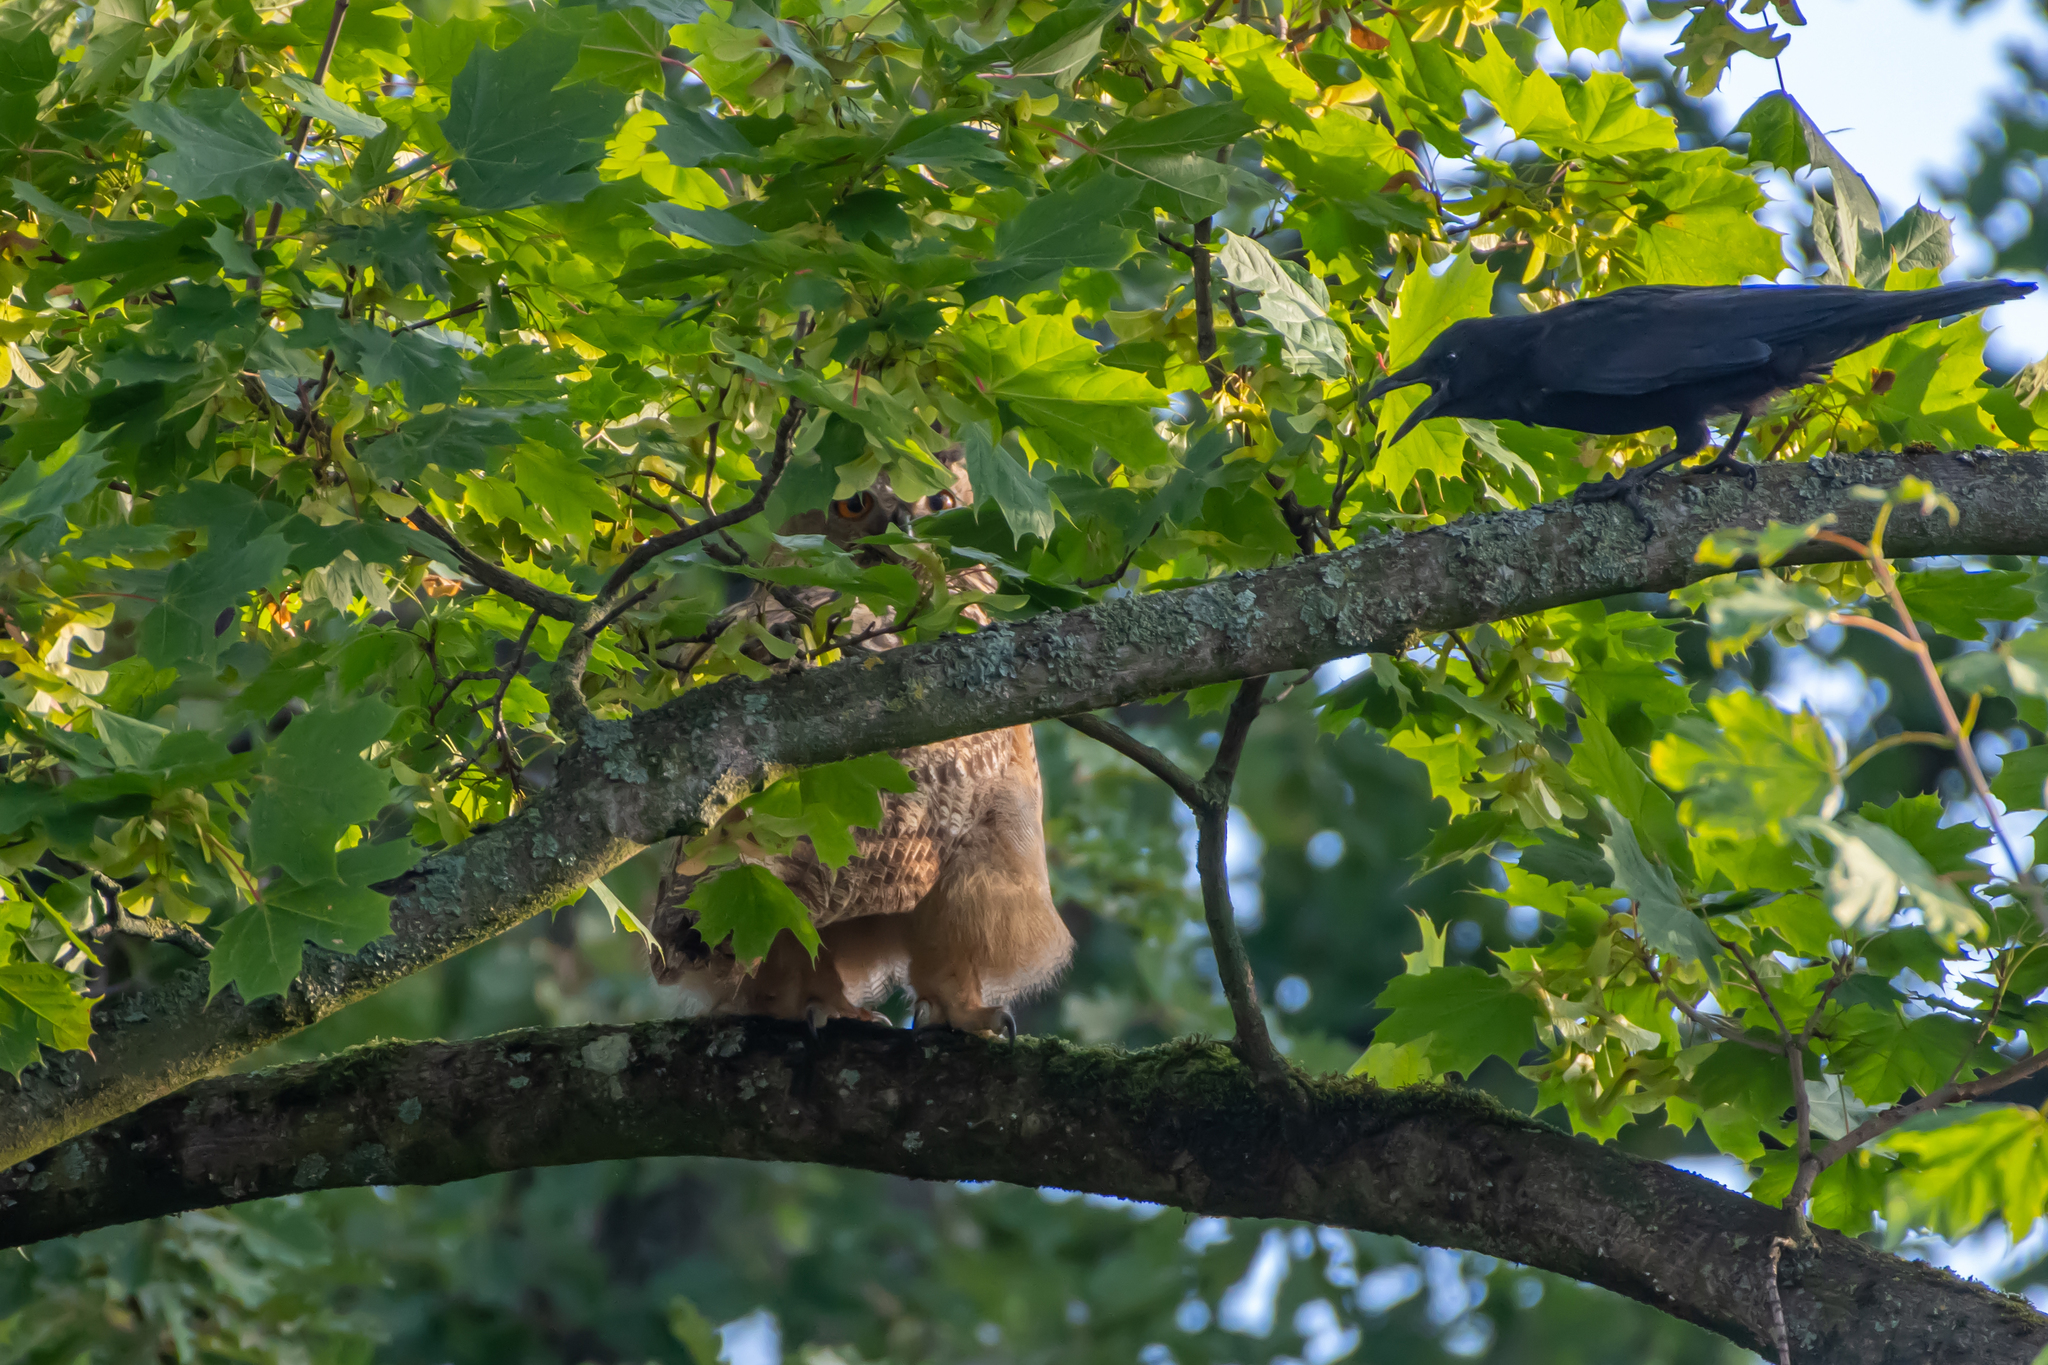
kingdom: Animalia
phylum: Chordata
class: Aves
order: Strigiformes
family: Strigidae
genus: Bubo
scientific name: Bubo bubo
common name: Eurasian eagle-owl
